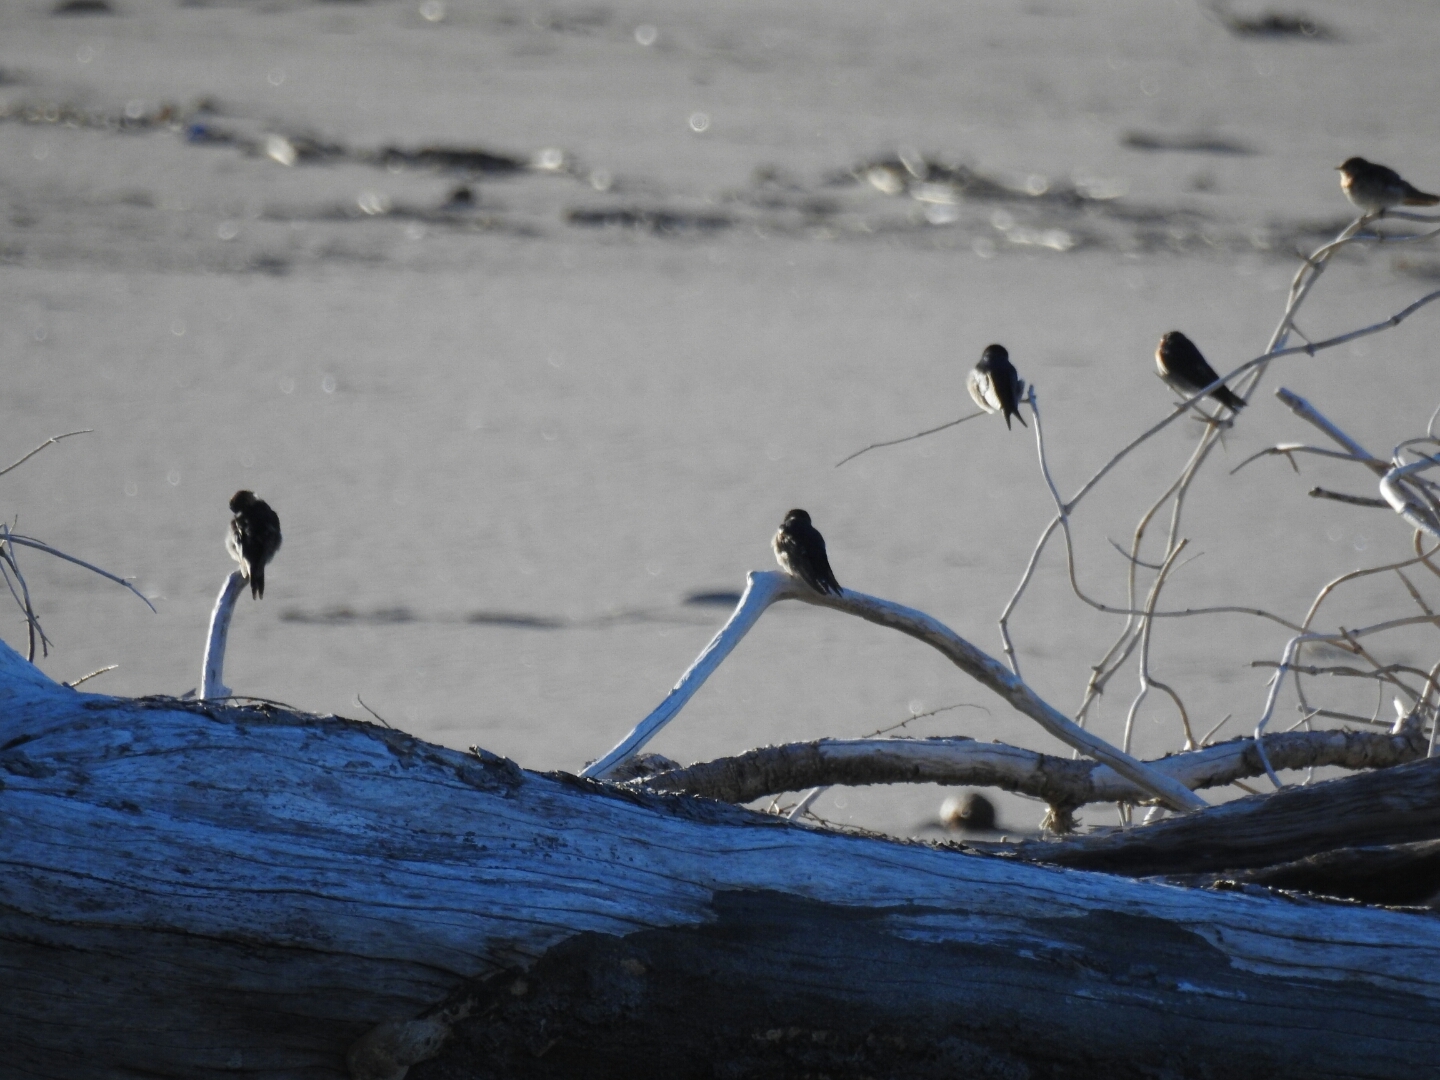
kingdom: Animalia
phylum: Chordata
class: Aves
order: Passeriformes
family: Hirundinidae
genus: Hirundo
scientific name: Hirundo neoxena
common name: Welcome swallow
